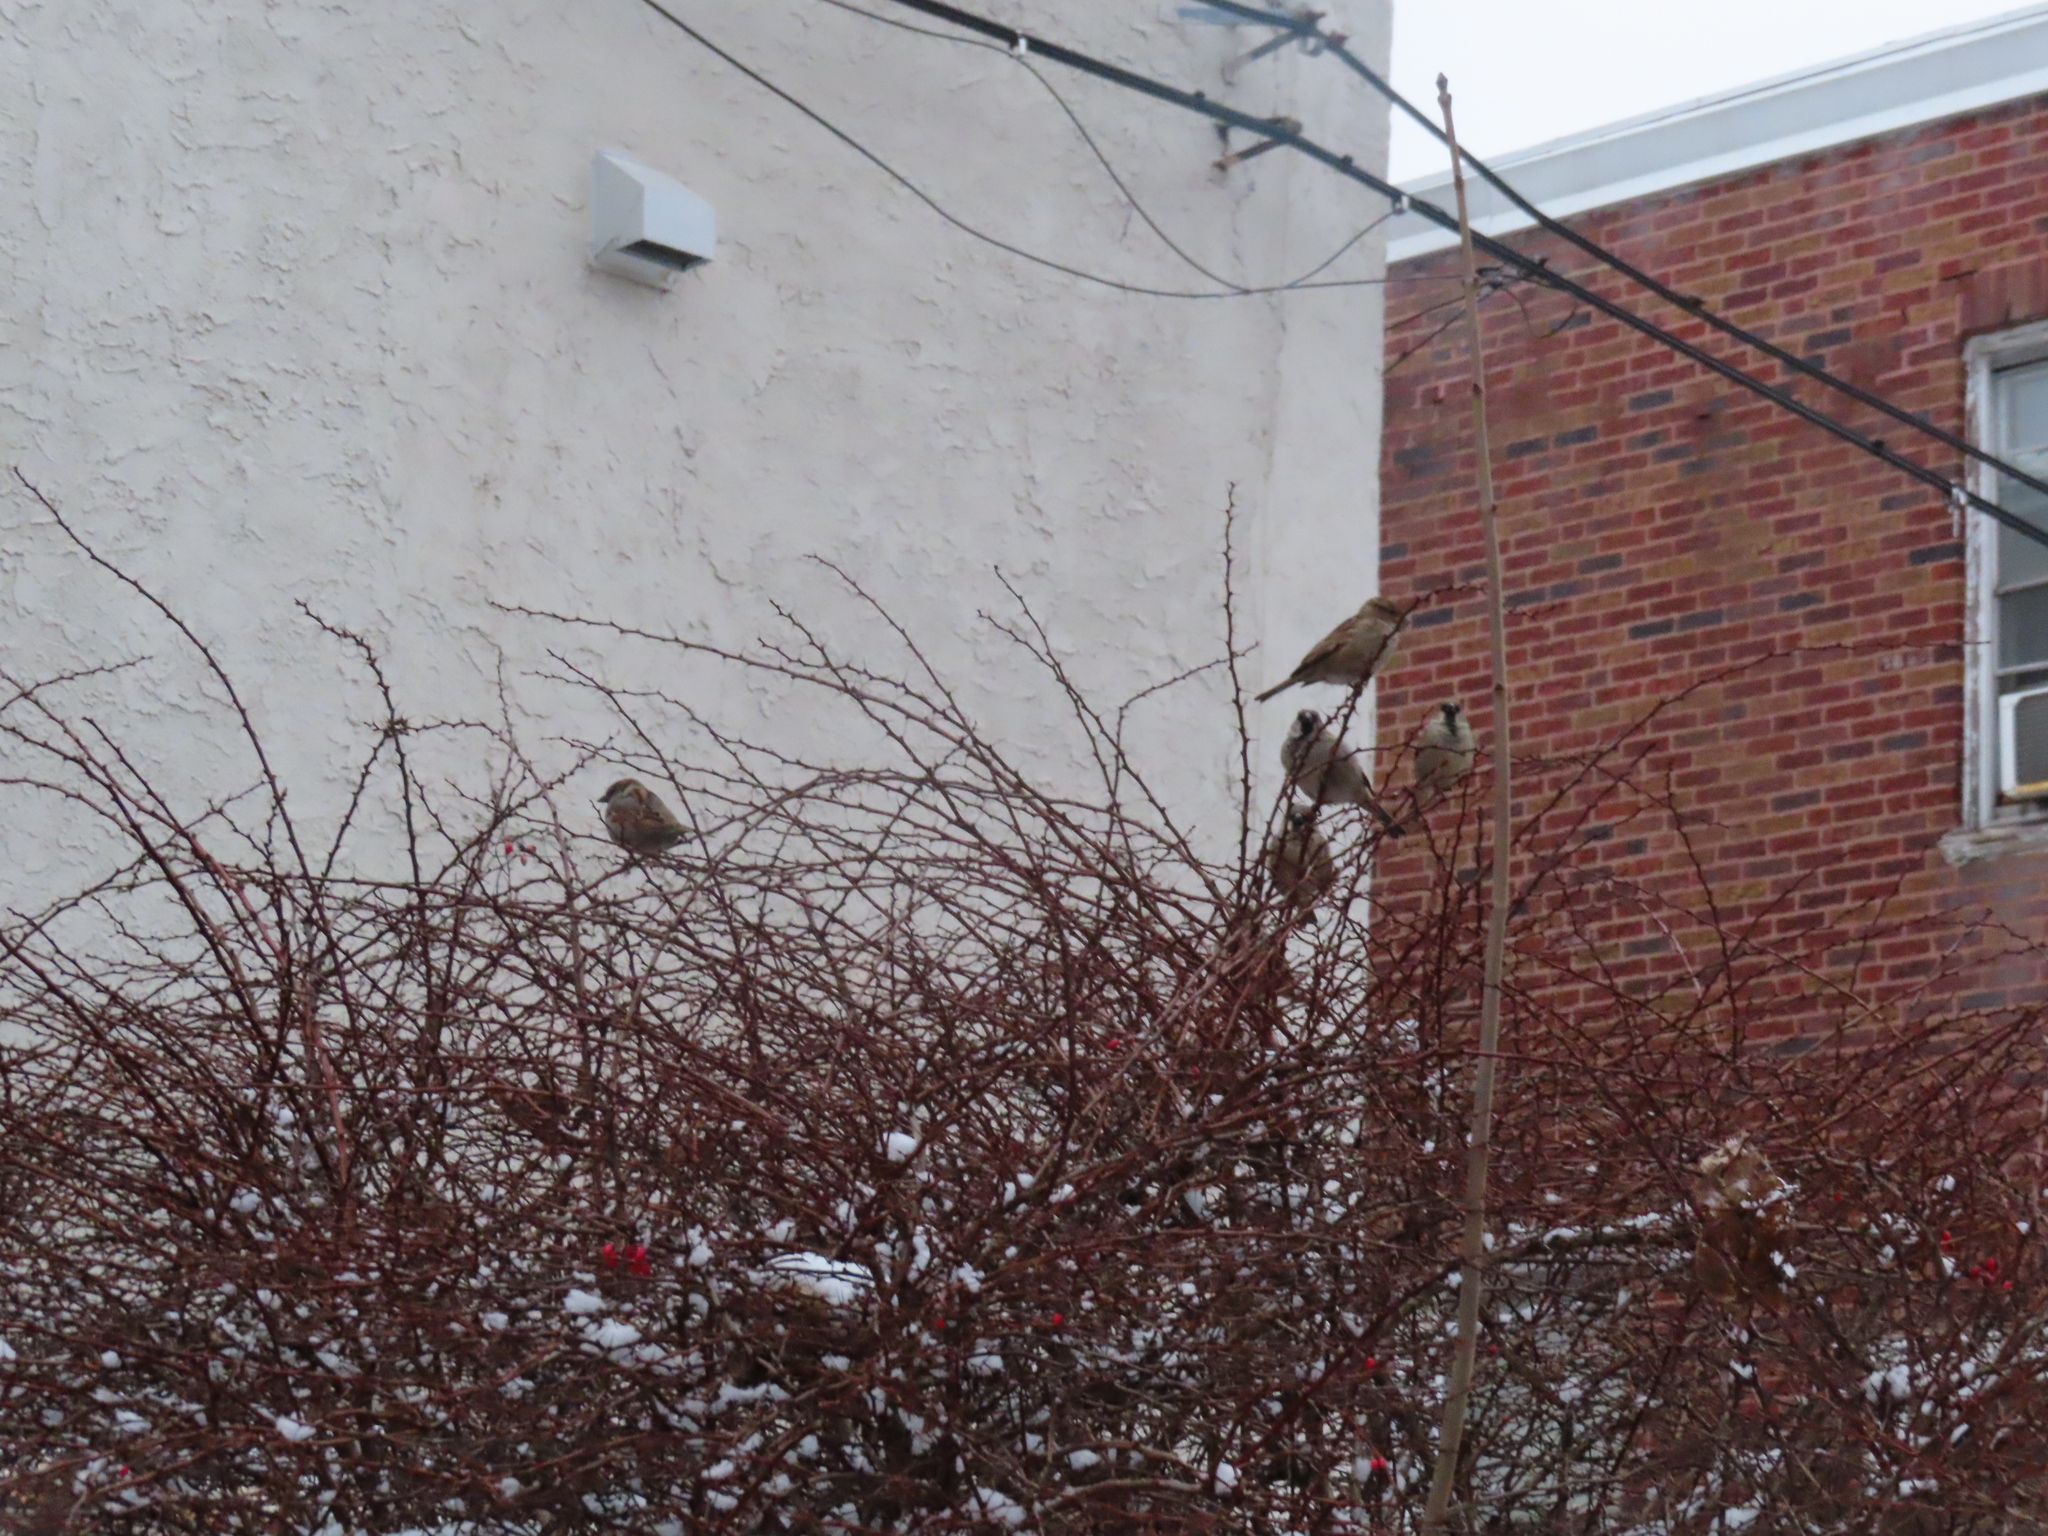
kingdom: Animalia
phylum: Chordata
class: Aves
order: Passeriformes
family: Passeridae
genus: Passer
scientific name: Passer domesticus
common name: House sparrow
